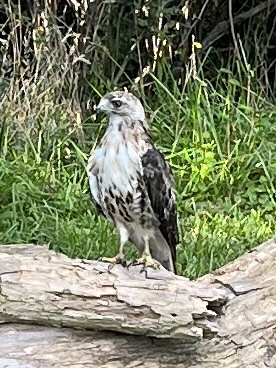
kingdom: Animalia
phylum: Chordata
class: Aves
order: Accipitriformes
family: Accipitridae
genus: Buteo
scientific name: Buteo jamaicensis
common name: Red-tailed hawk
